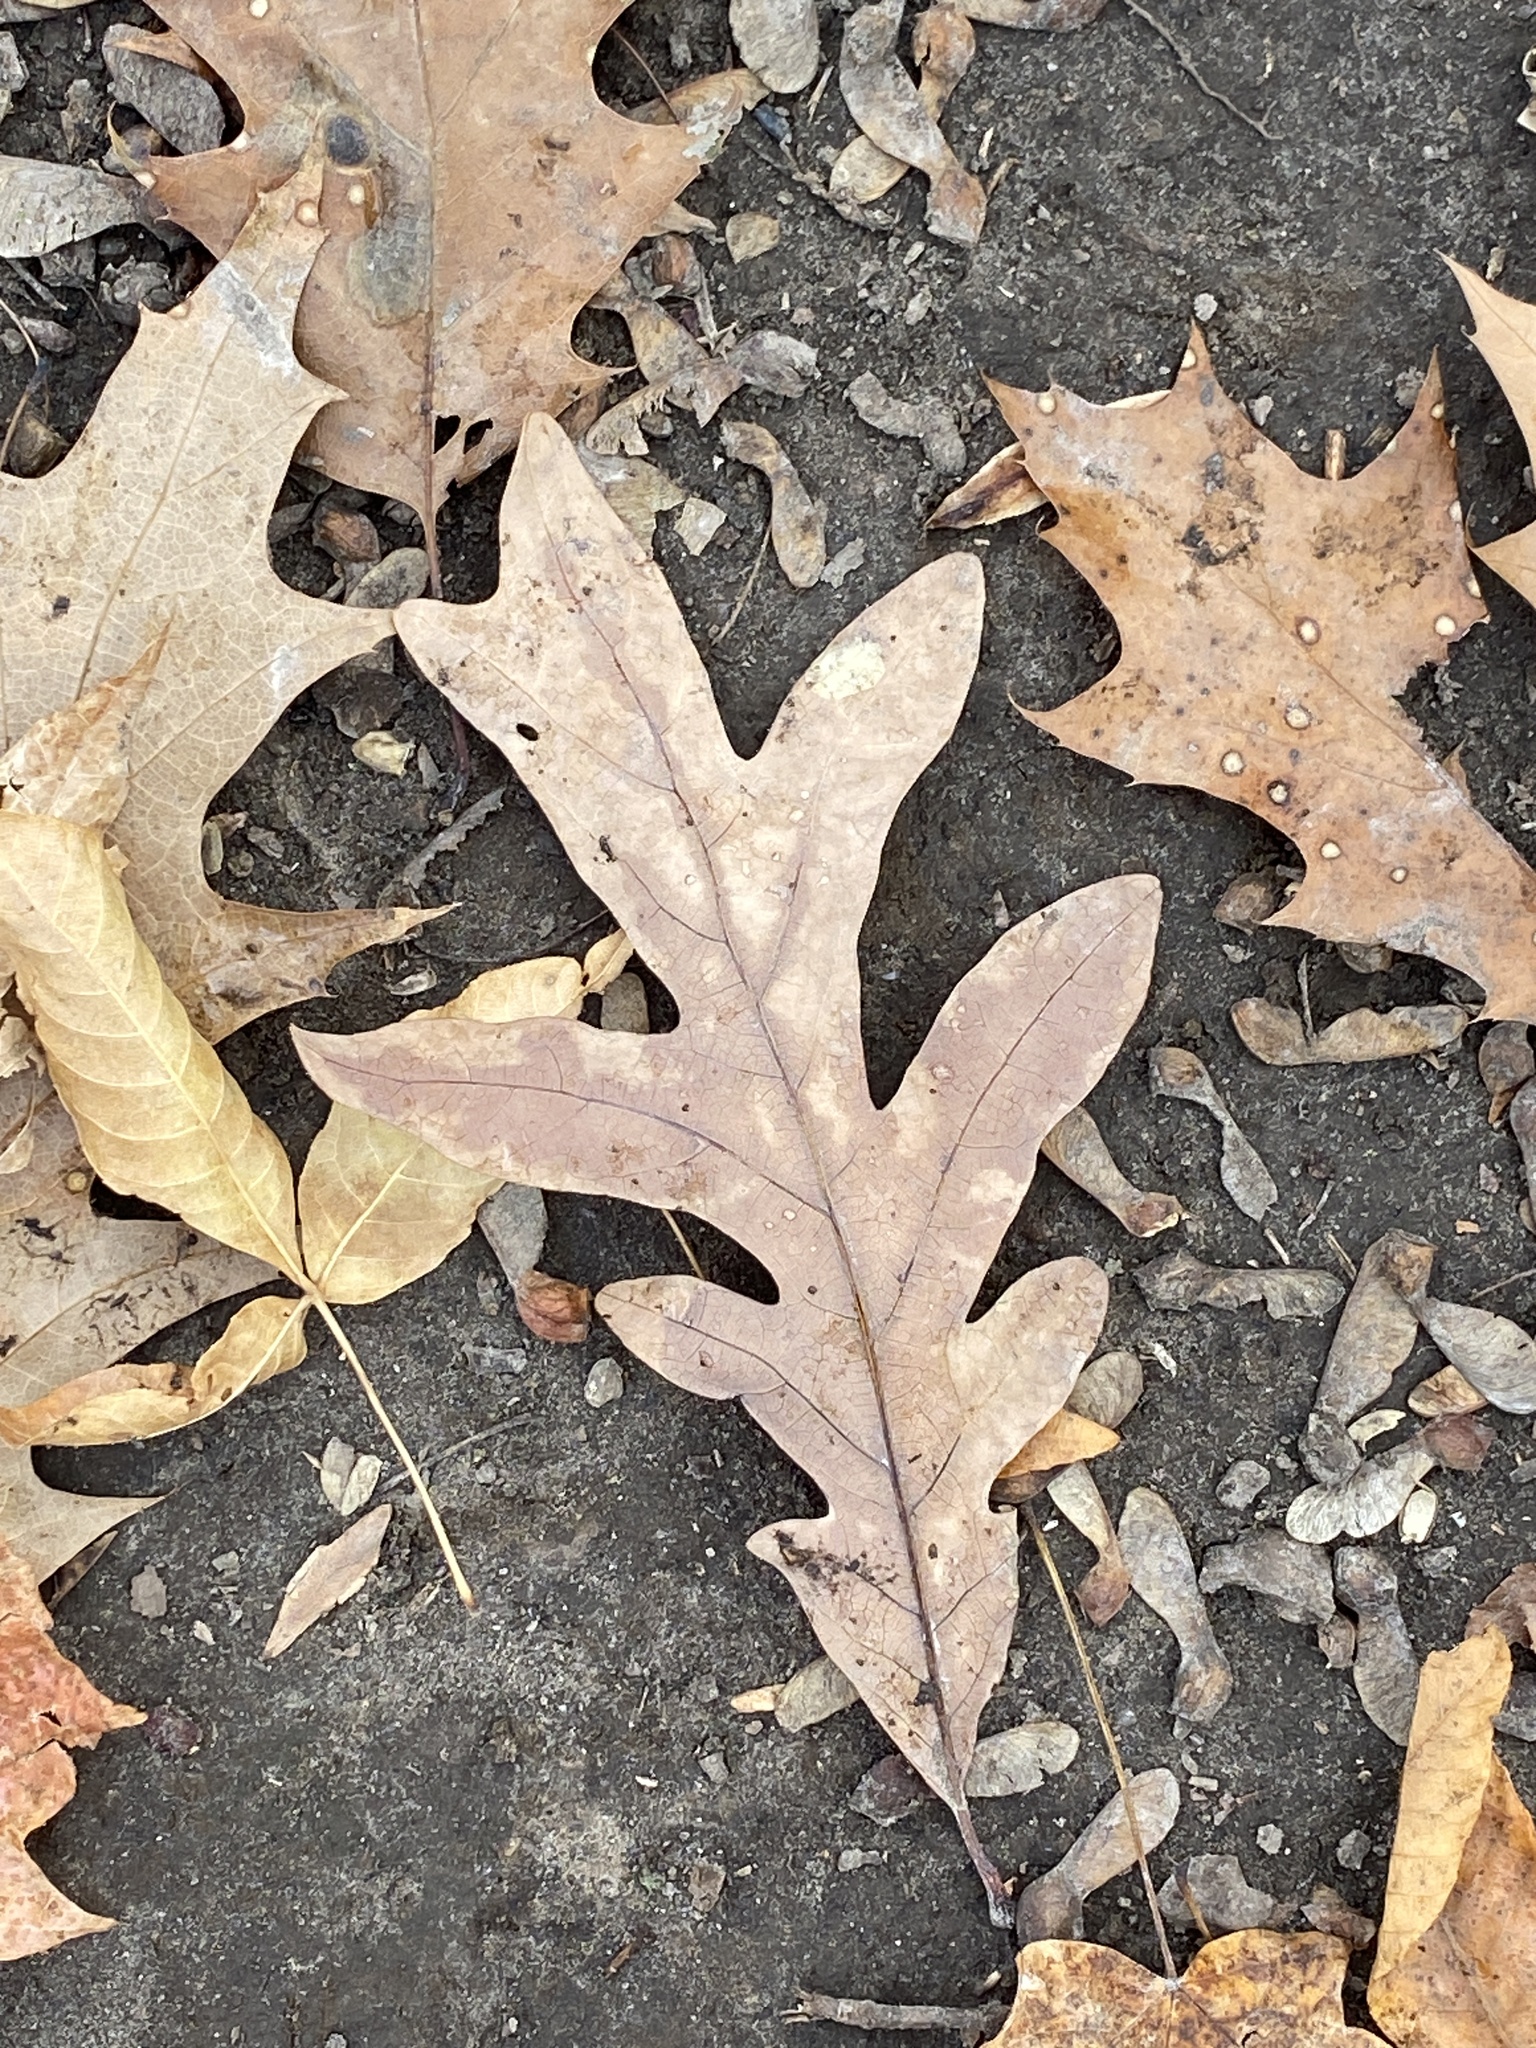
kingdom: Plantae
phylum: Tracheophyta
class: Magnoliopsida
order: Fagales
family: Fagaceae
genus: Quercus
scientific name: Quercus alba
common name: White oak
